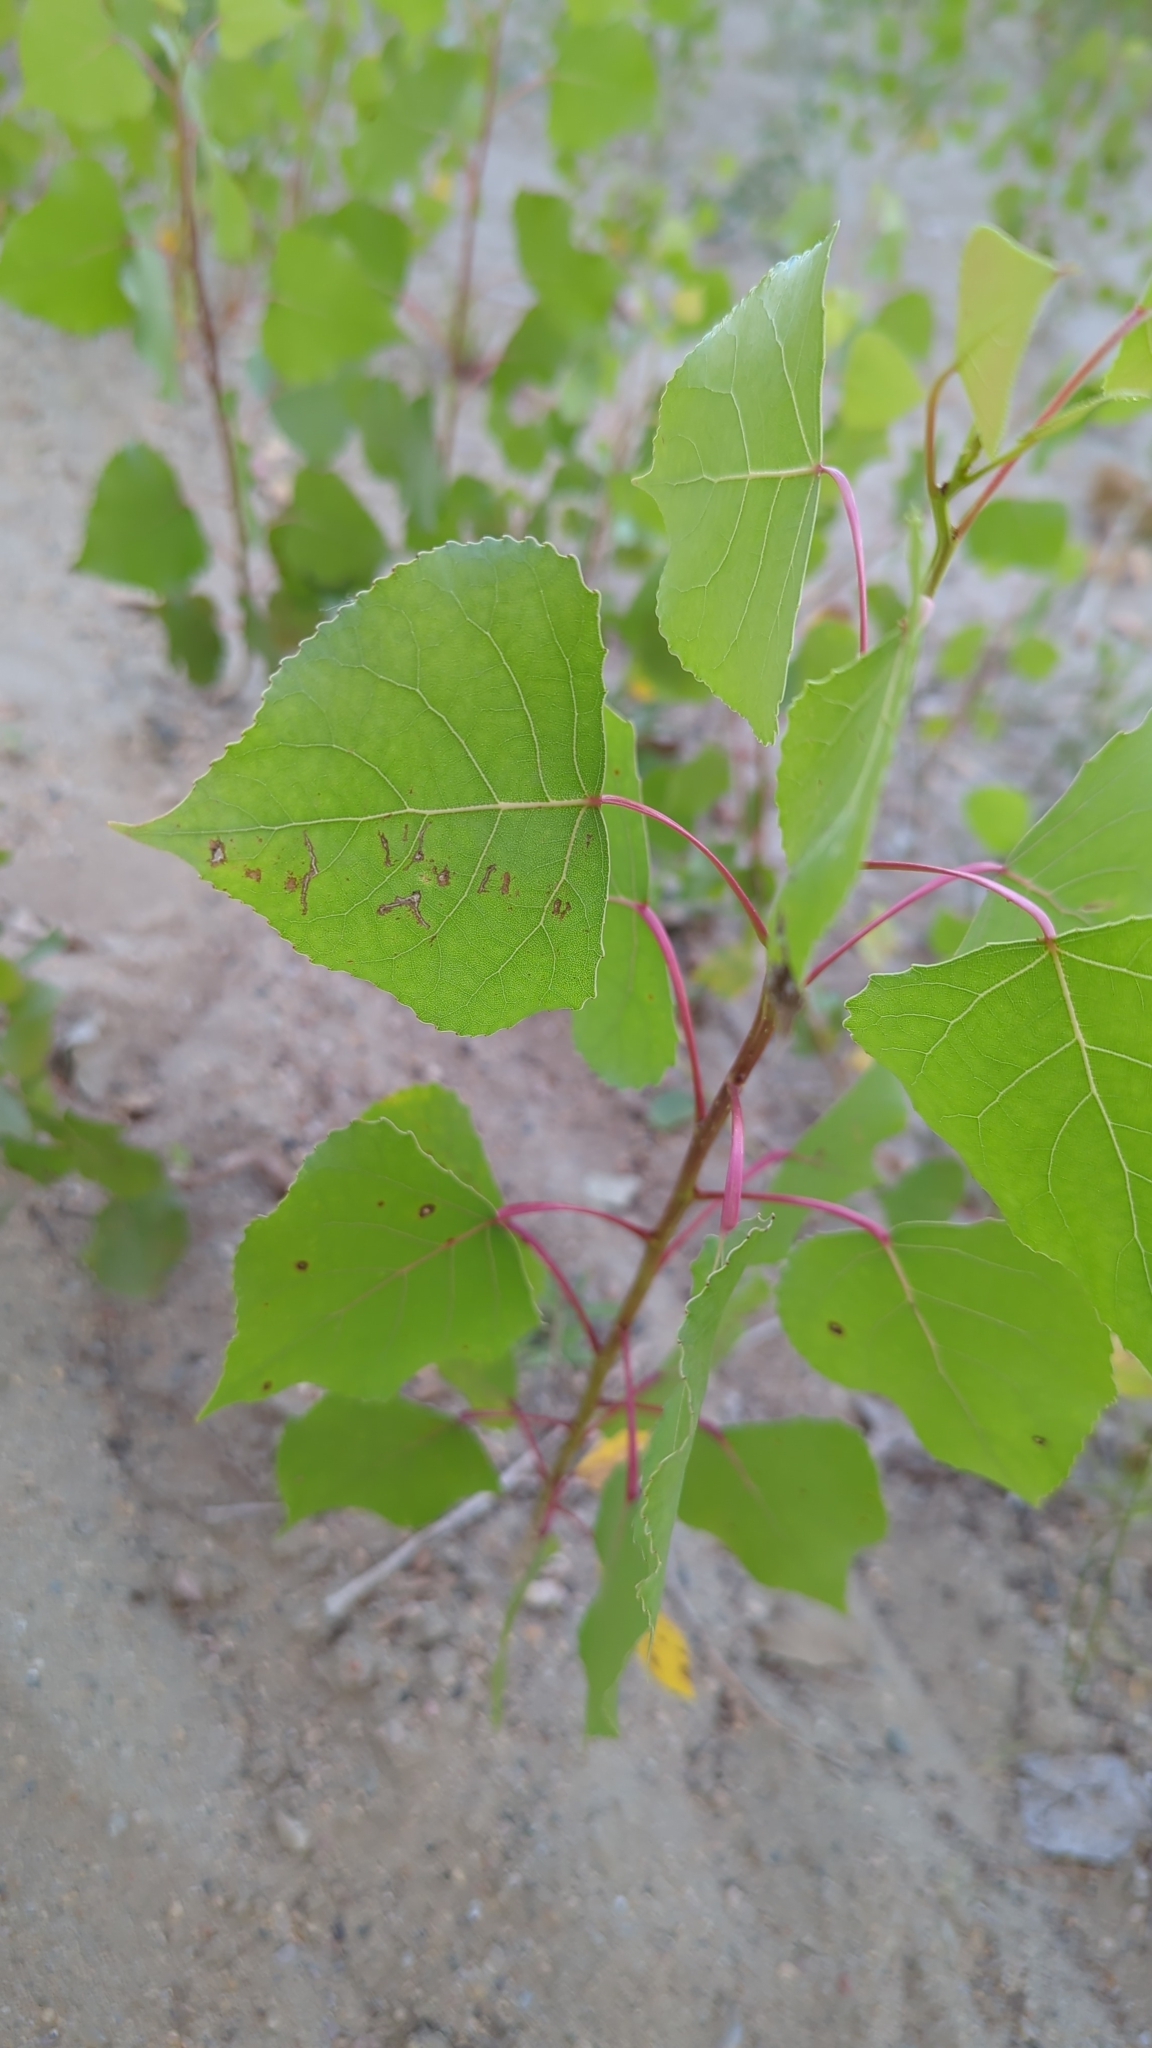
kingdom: Plantae
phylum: Tracheophyta
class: Magnoliopsida
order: Malpighiales
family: Salicaceae
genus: Populus
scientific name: Populus deltoides
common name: Eastern cottonwood
